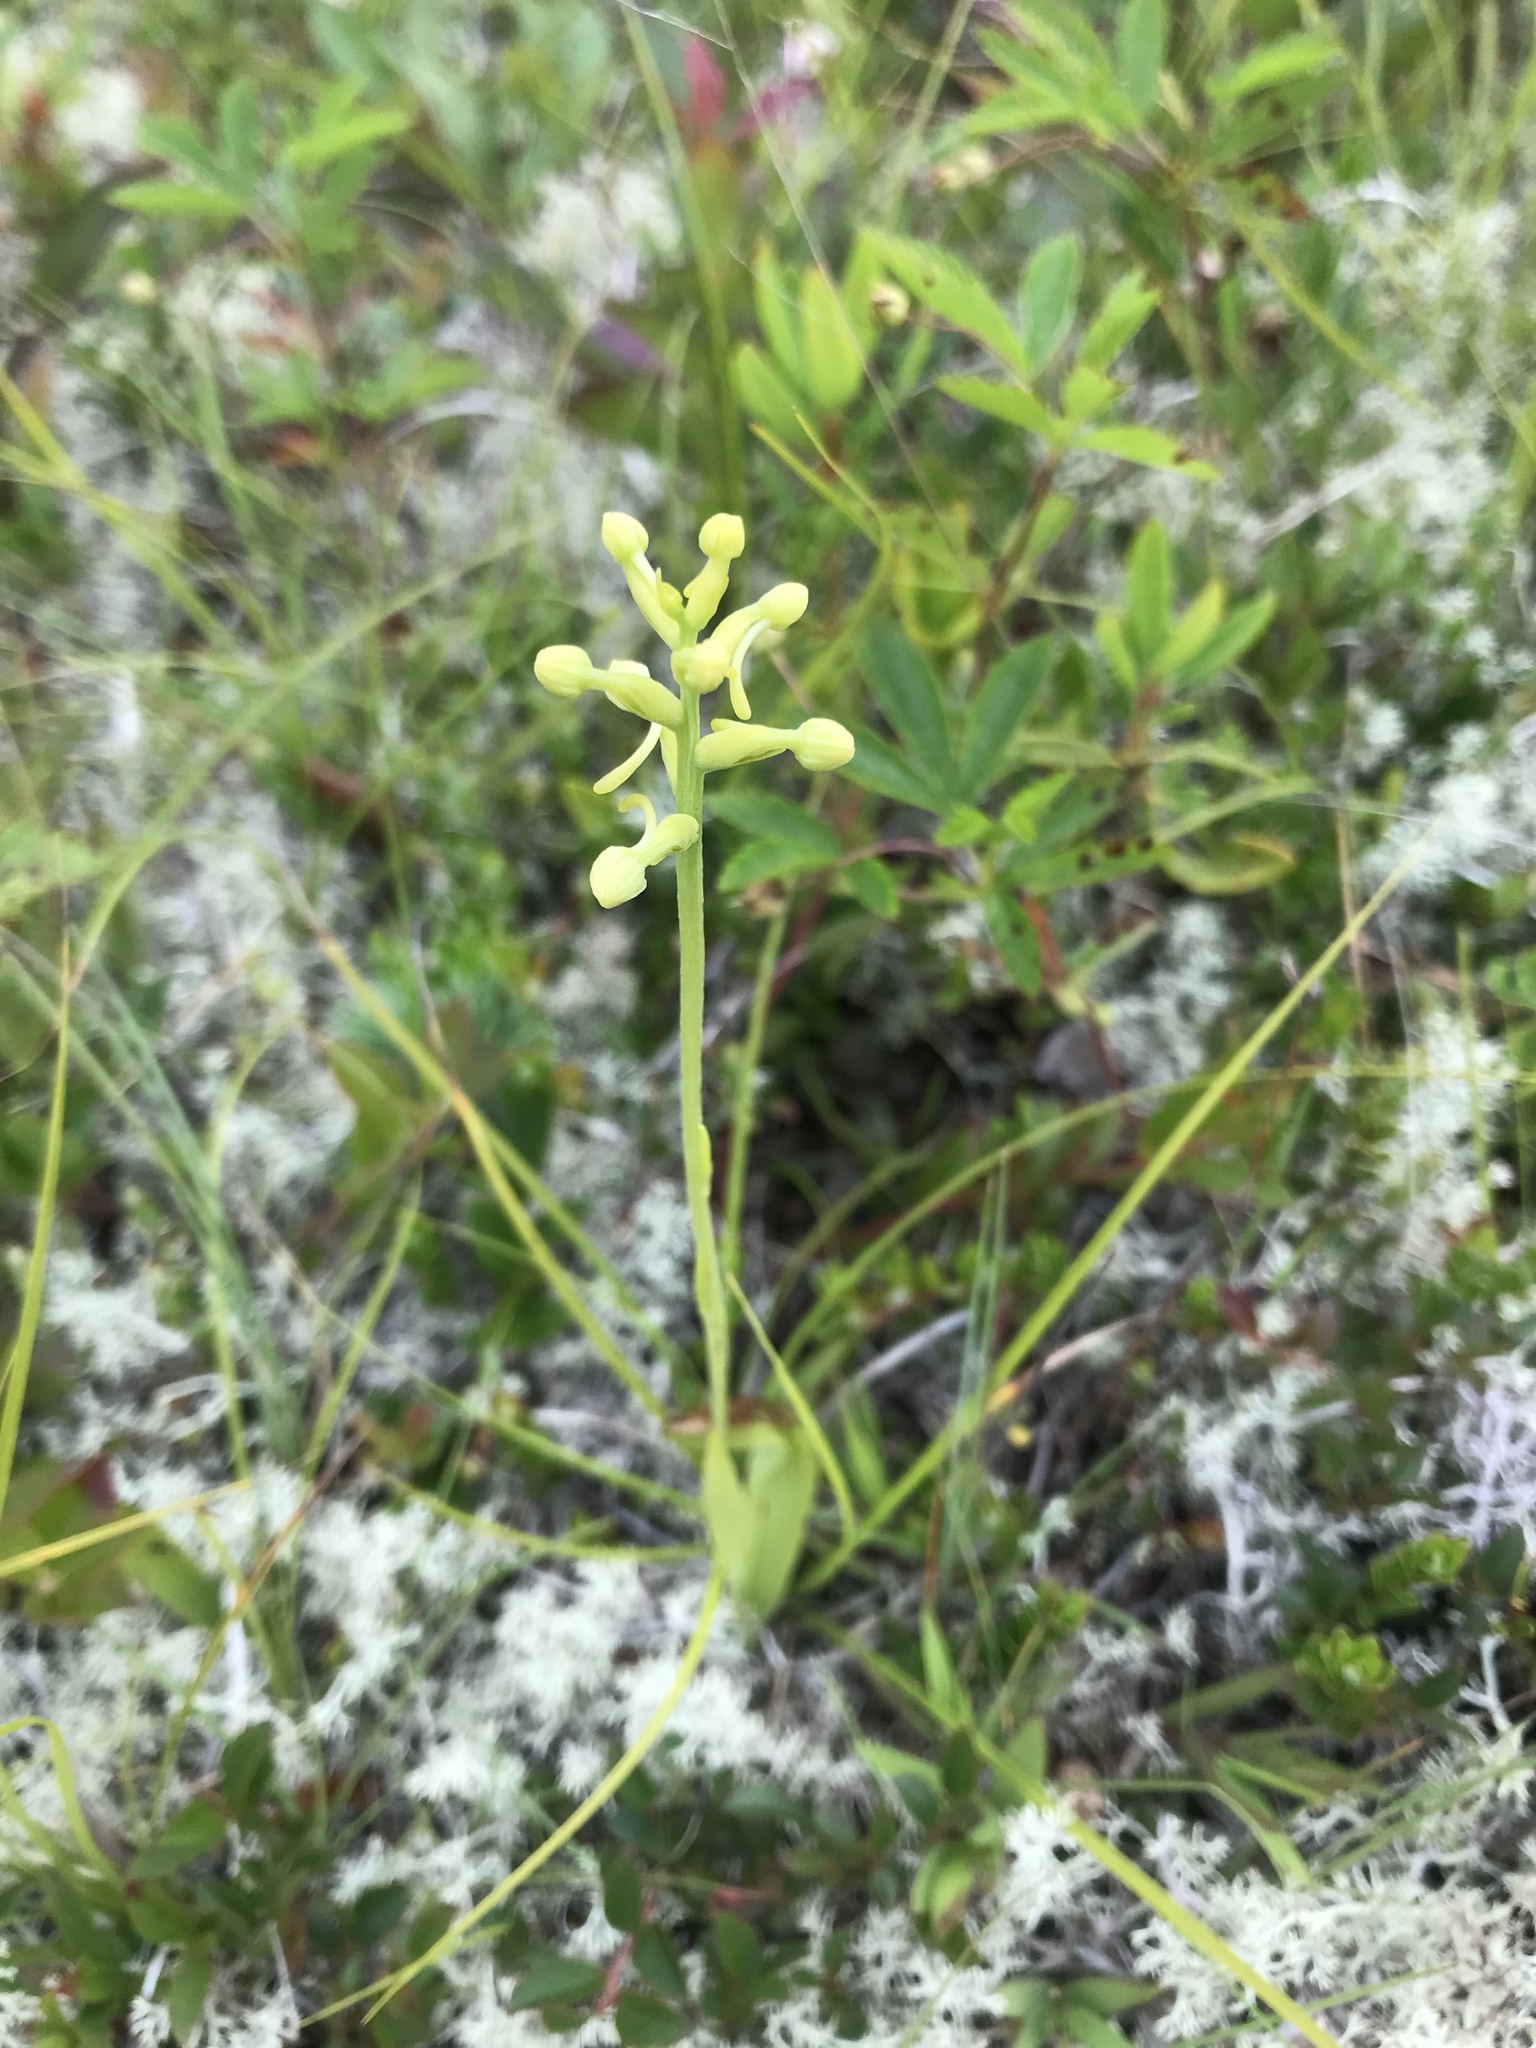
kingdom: Plantae
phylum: Tracheophyta
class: Liliopsida
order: Asparagales
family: Orchidaceae
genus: Platanthera
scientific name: Platanthera clavellata
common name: Club-spur orchid
